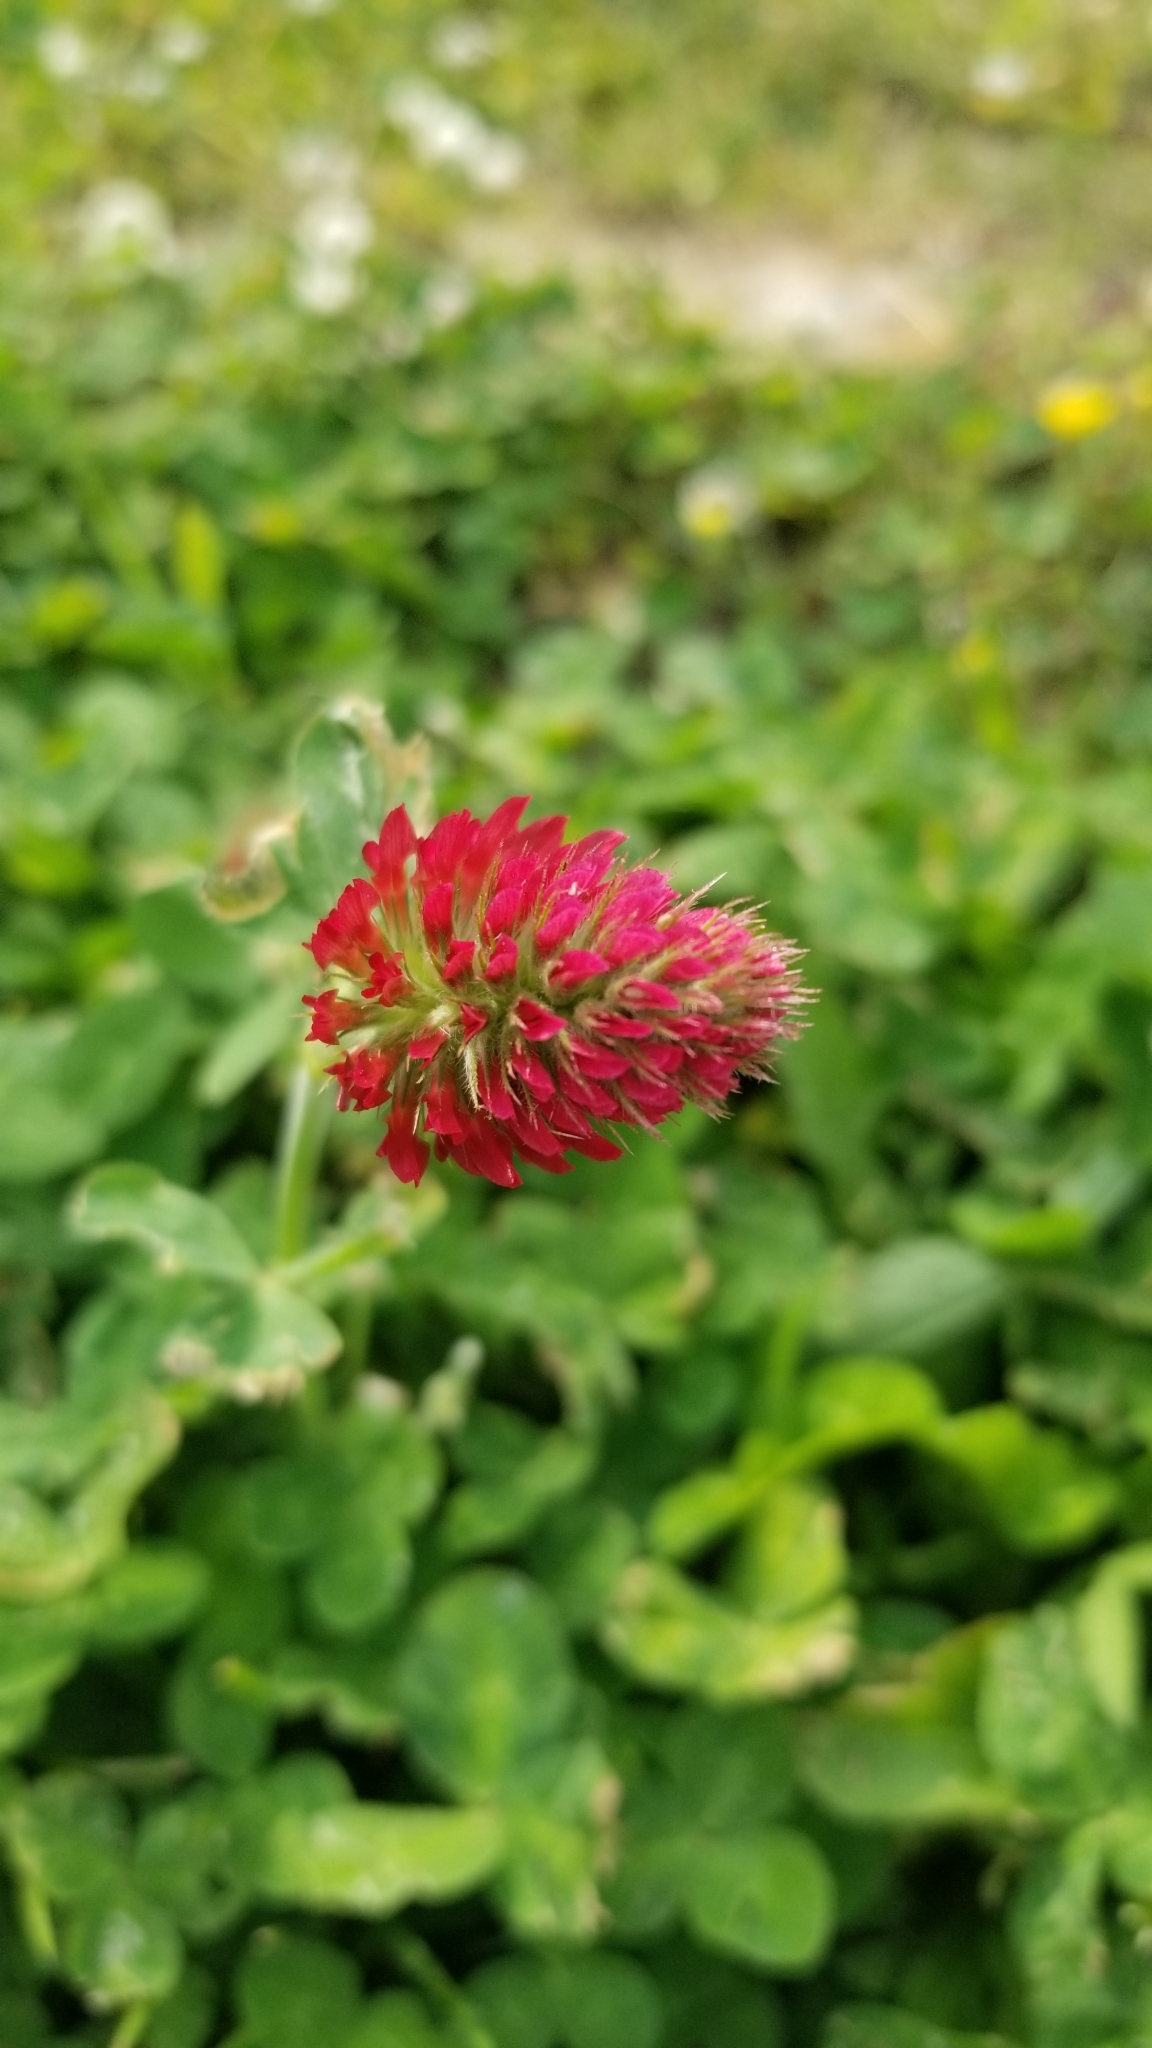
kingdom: Plantae
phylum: Tracheophyta
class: Magnoliopsida
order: Fabales
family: Fabaceae
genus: Trifolium
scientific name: Trifolium incarnatum
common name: Crimson clover
